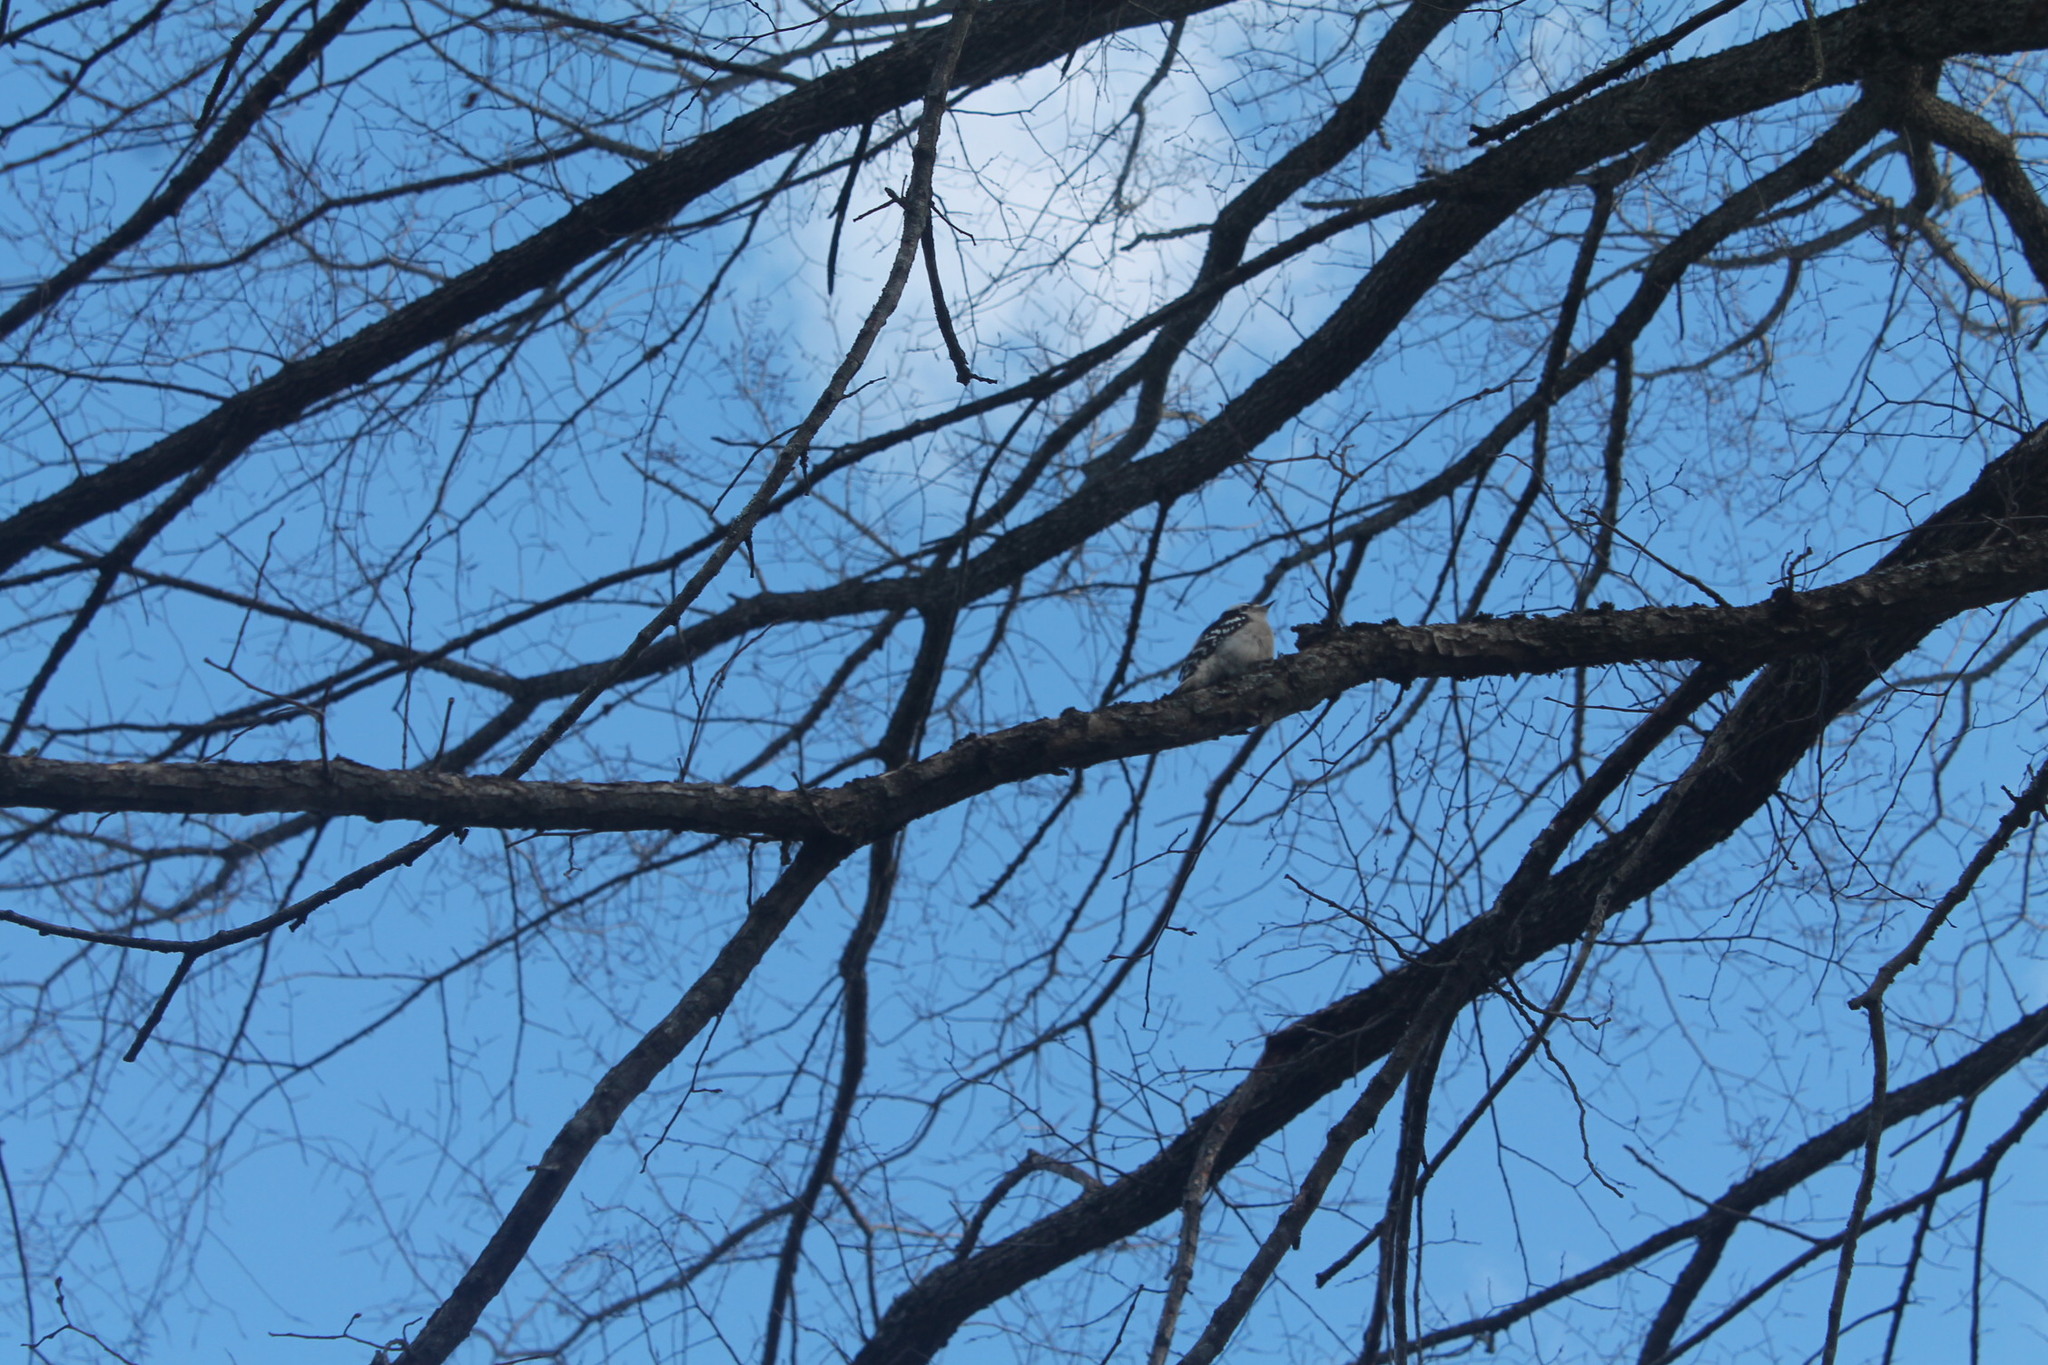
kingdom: Animalia
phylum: Chordata
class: Aves
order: Piciformes
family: Picidae
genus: Dryobates
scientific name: Dryobates pubescens
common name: Downy woodpecker
